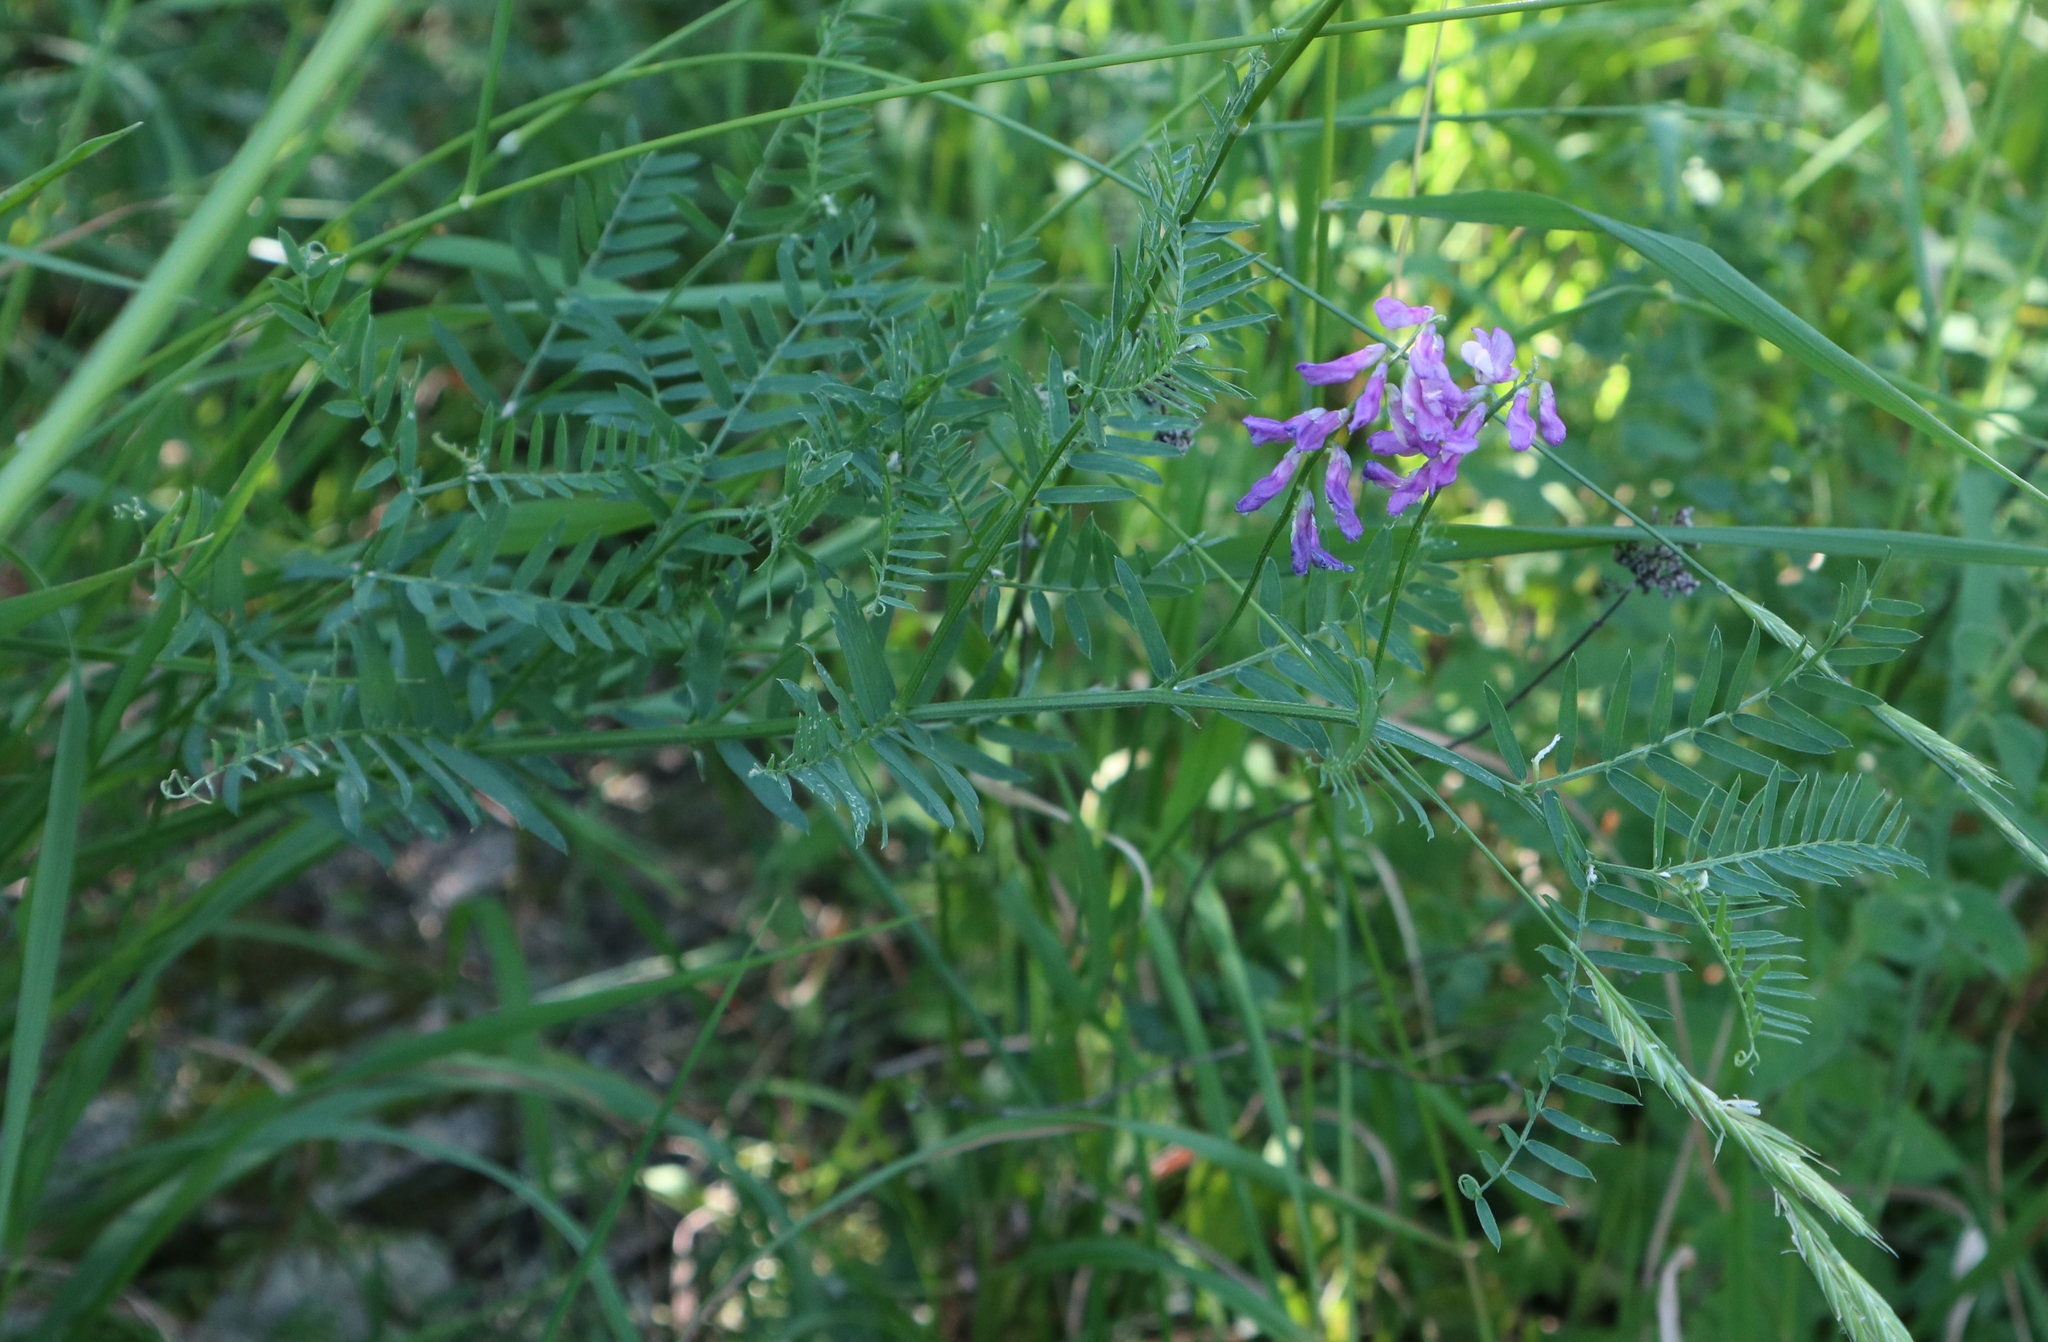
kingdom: Plantae
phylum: Tracheophyta
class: Magnoliopsida
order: Fabales
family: Fabaceae
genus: Vicia
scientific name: Vicia tenuifolia
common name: Fine-leaved vetch
